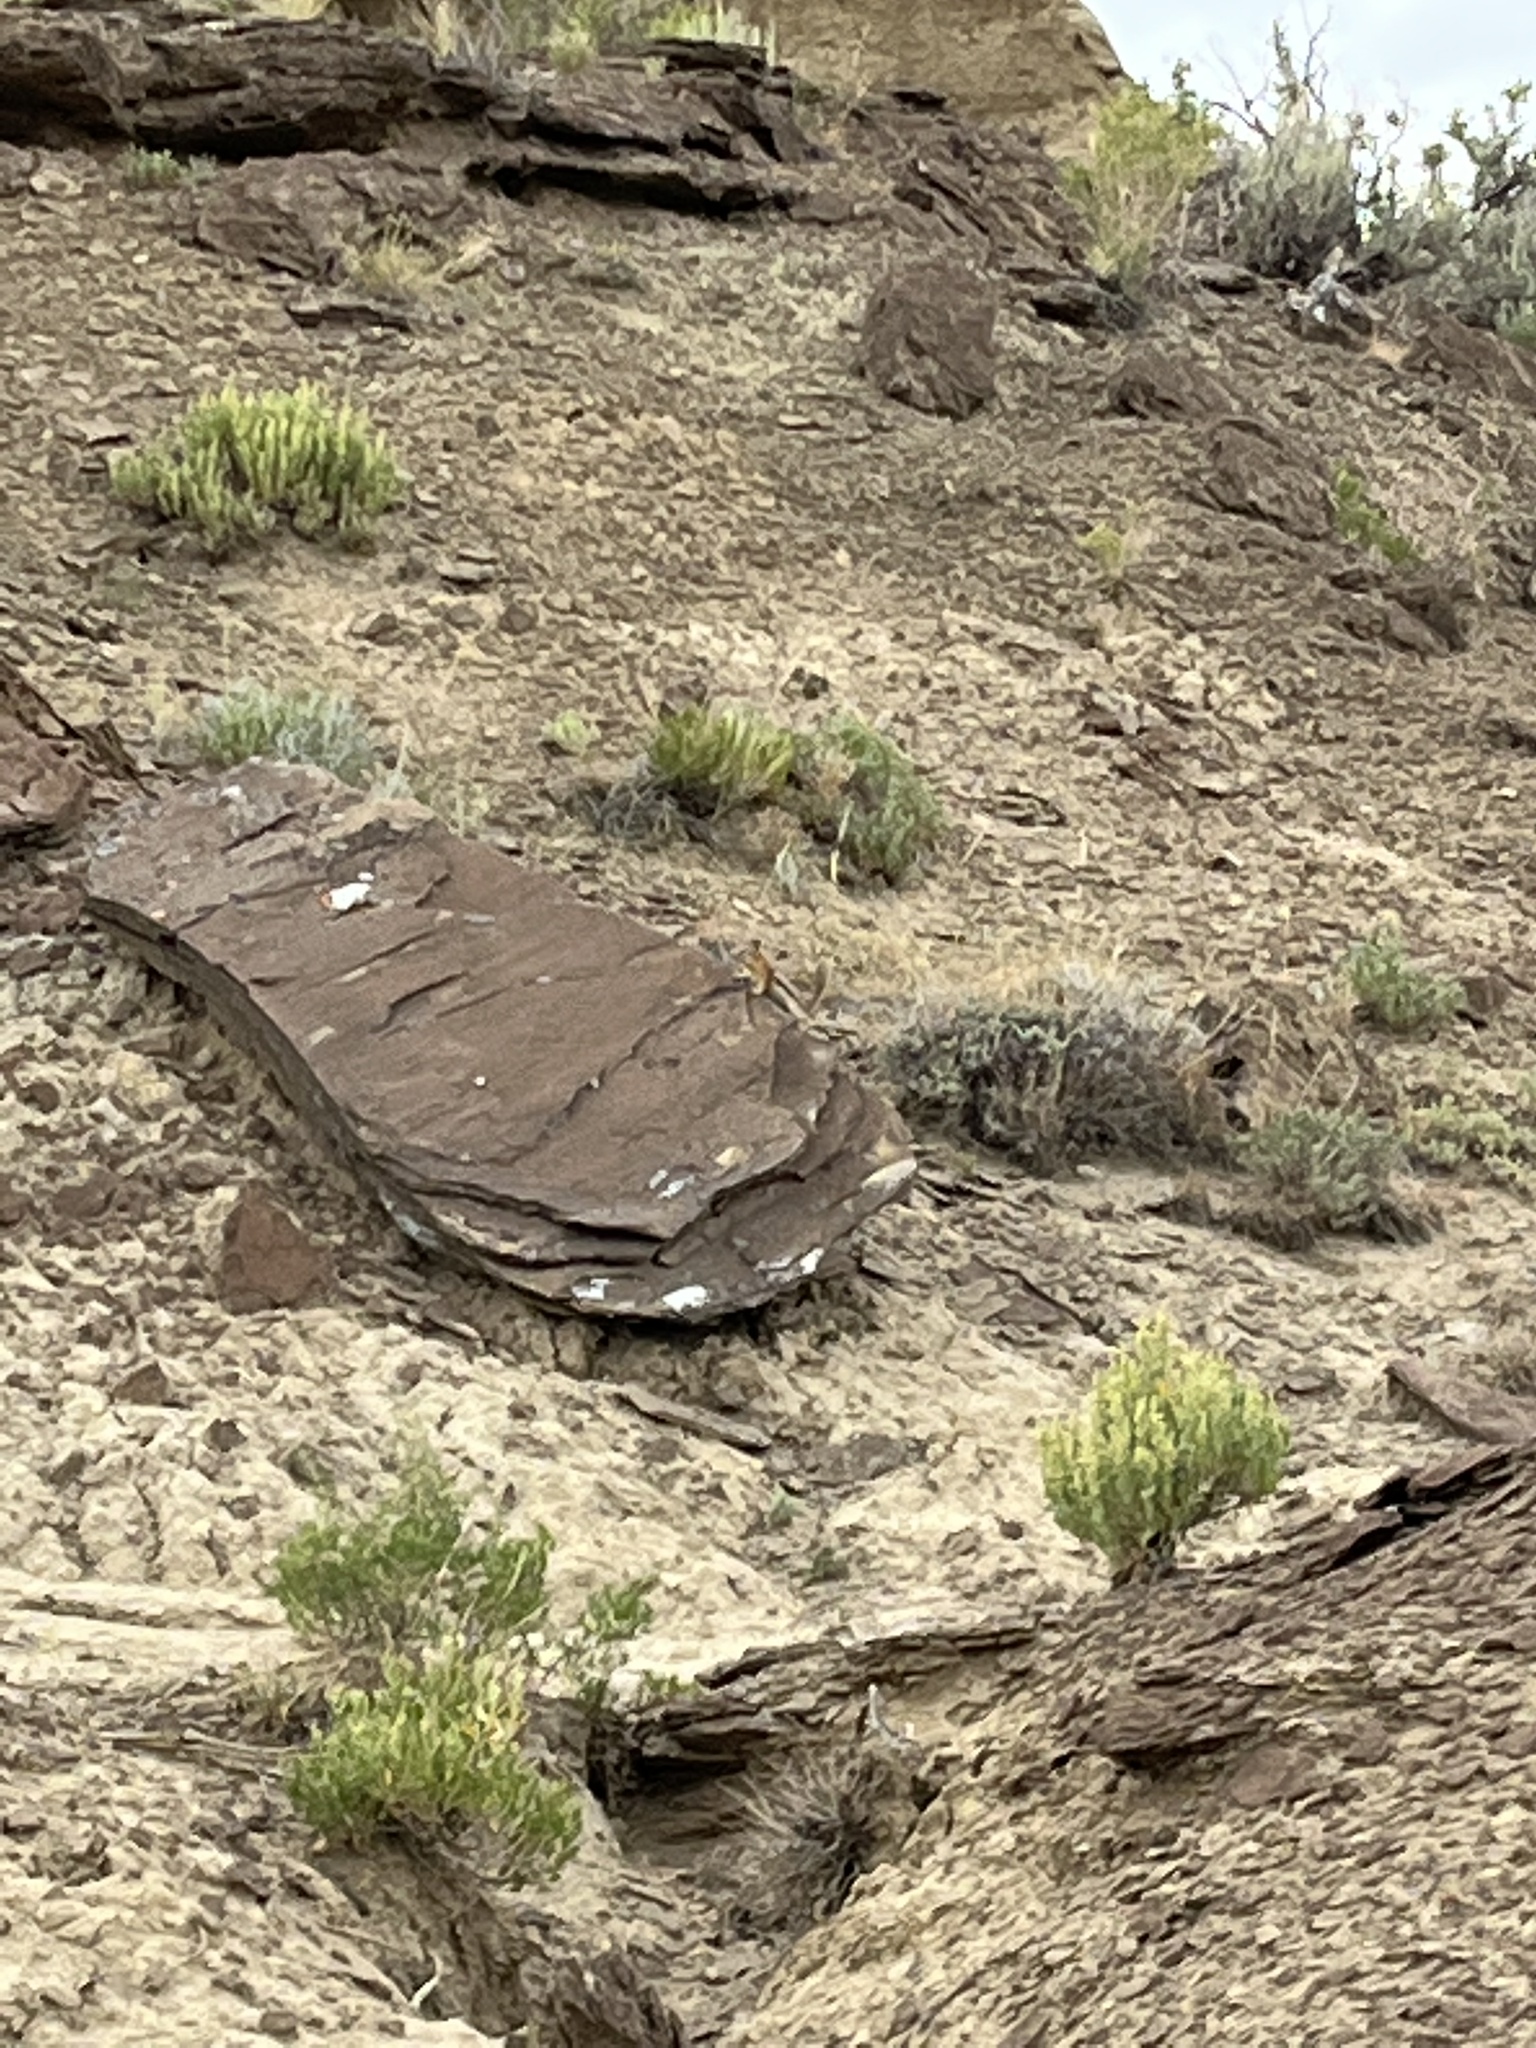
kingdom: Animalia
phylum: Chordata
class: Mammalia
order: Rodentia
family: Sciuridae
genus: Callospermophilus
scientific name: Callospermophilus lateralis
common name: Golden-mantled ground squirrel
